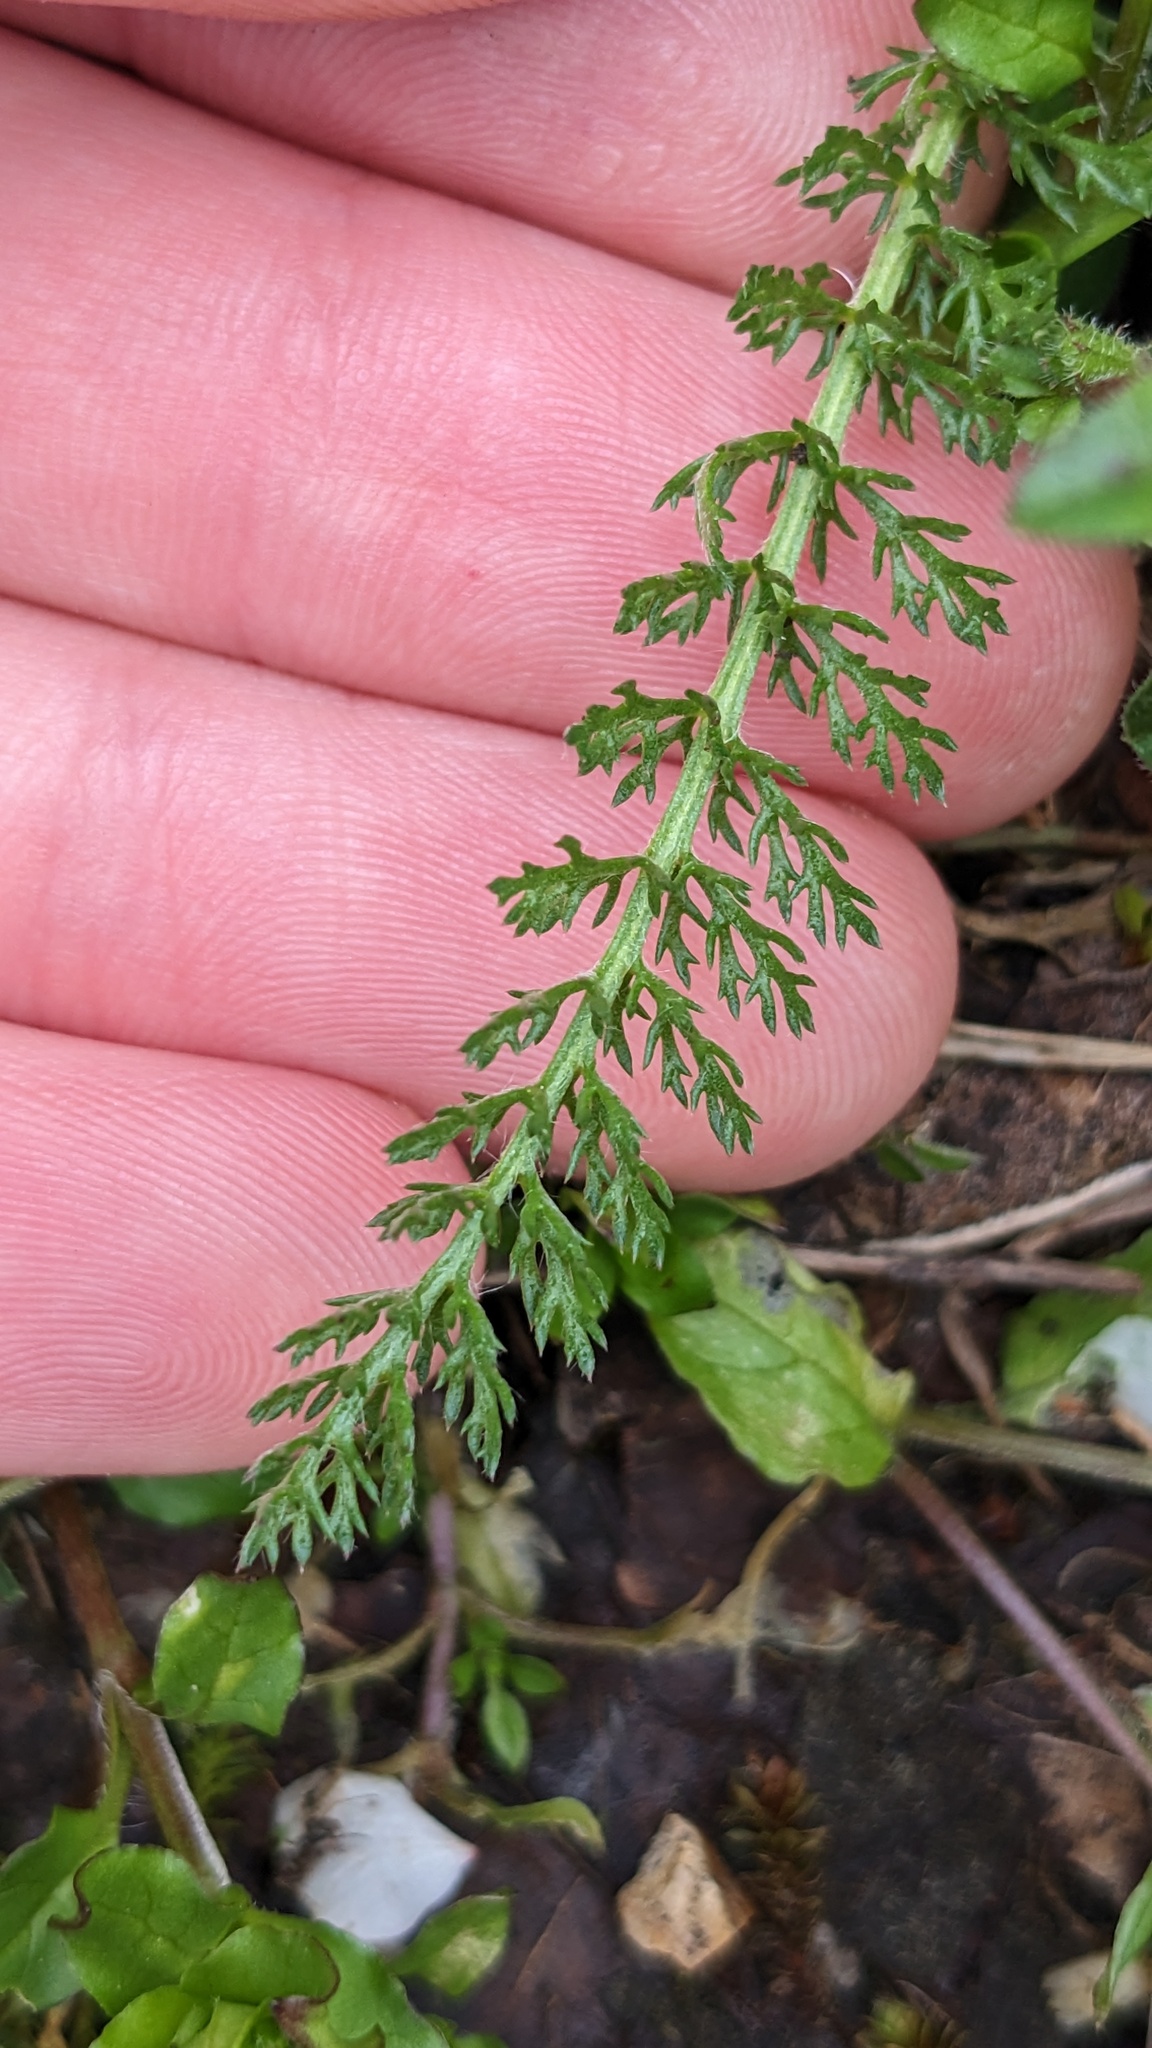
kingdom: Plantae
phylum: Tracheophyta
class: Magnoliopsida
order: Asterales
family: Asteraceae
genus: Achillea
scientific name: Achillea millefolium
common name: Yarrow
